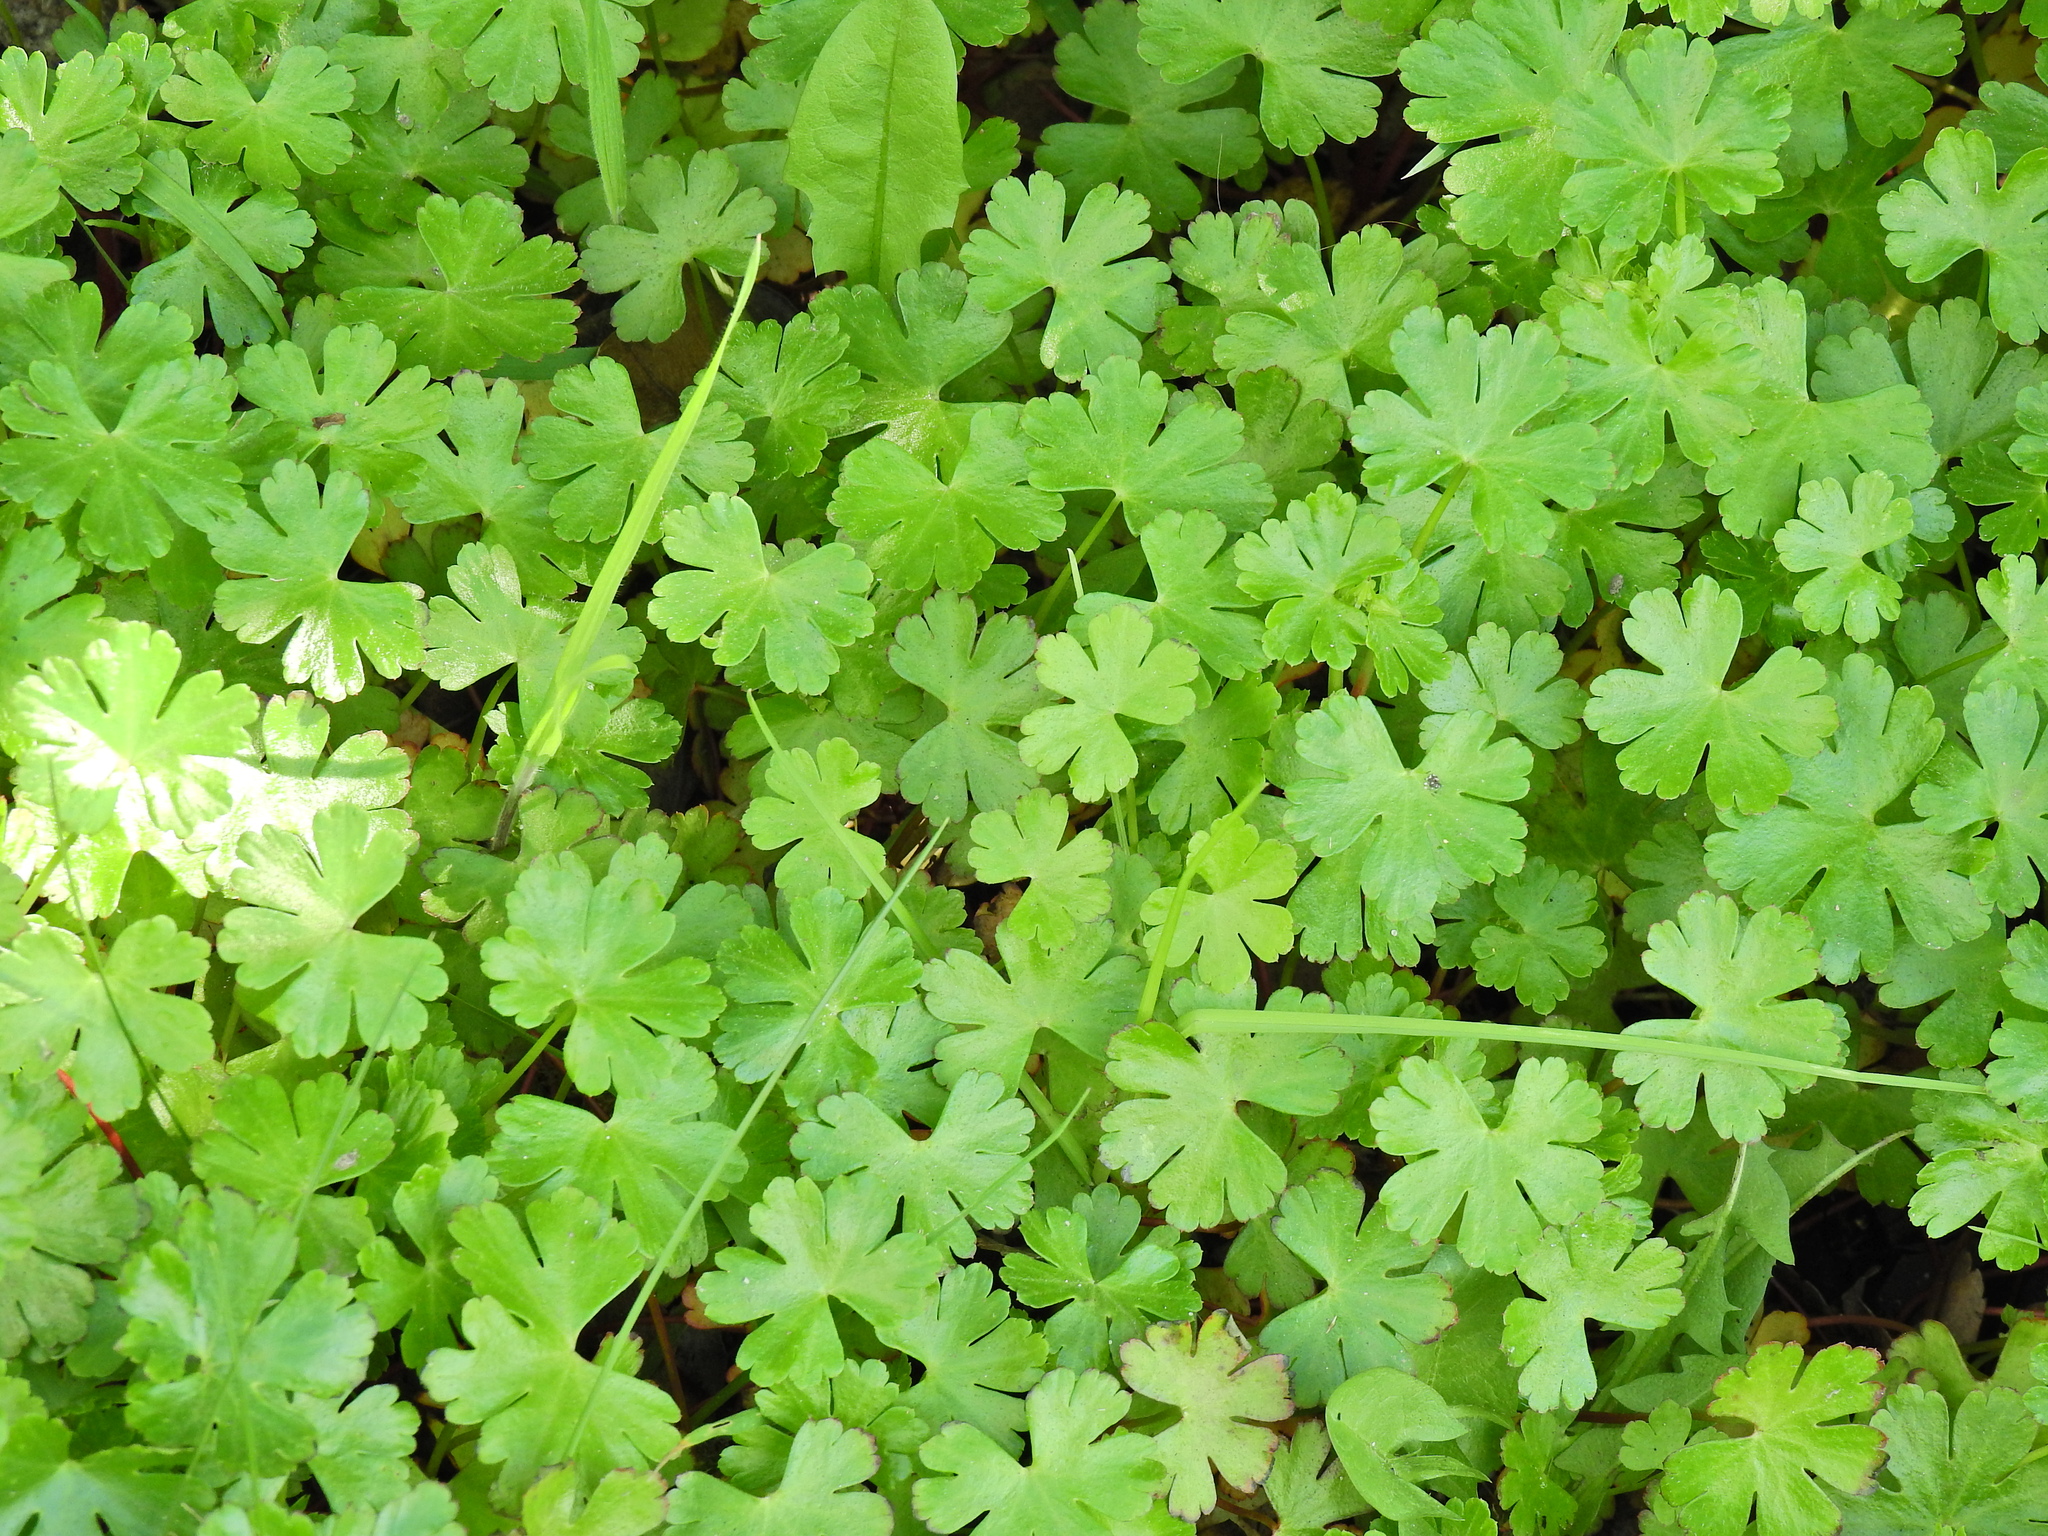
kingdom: Plantae
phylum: Tracheophyta
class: Magnoliopsida
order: Geraniales
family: Geraniaceae
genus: Geranium
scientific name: Geranium lucidum
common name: Shining crane's-bill
